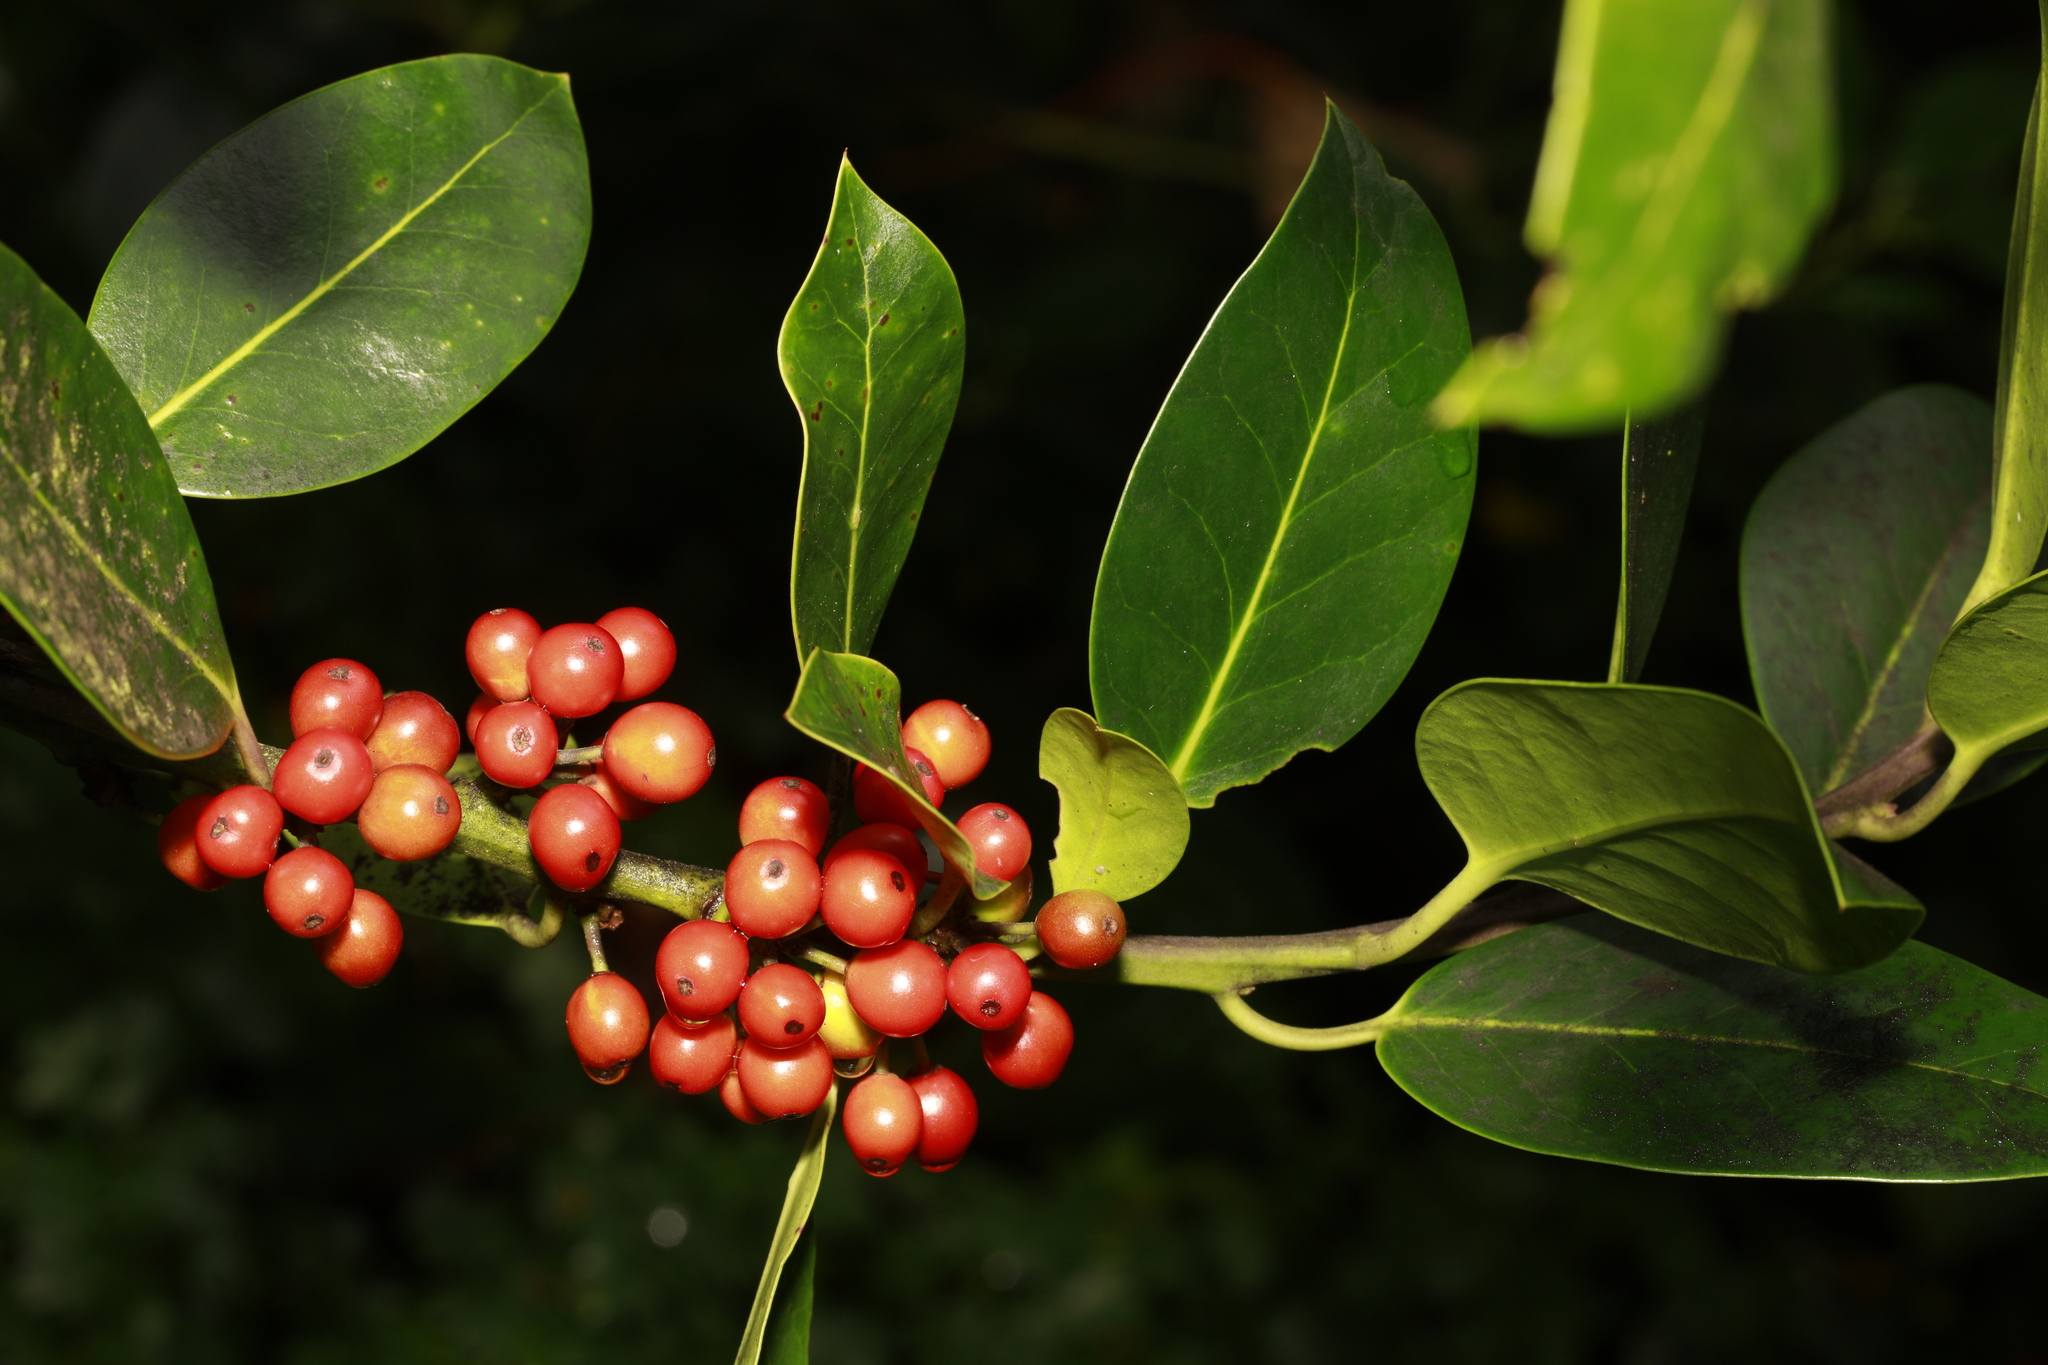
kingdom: Plantae
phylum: Tracheophyta
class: Magnoliopsida
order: Aquifoliales
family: Aquifoliaceae
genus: Ilex
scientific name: Ilex aquifolium
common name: English holly
